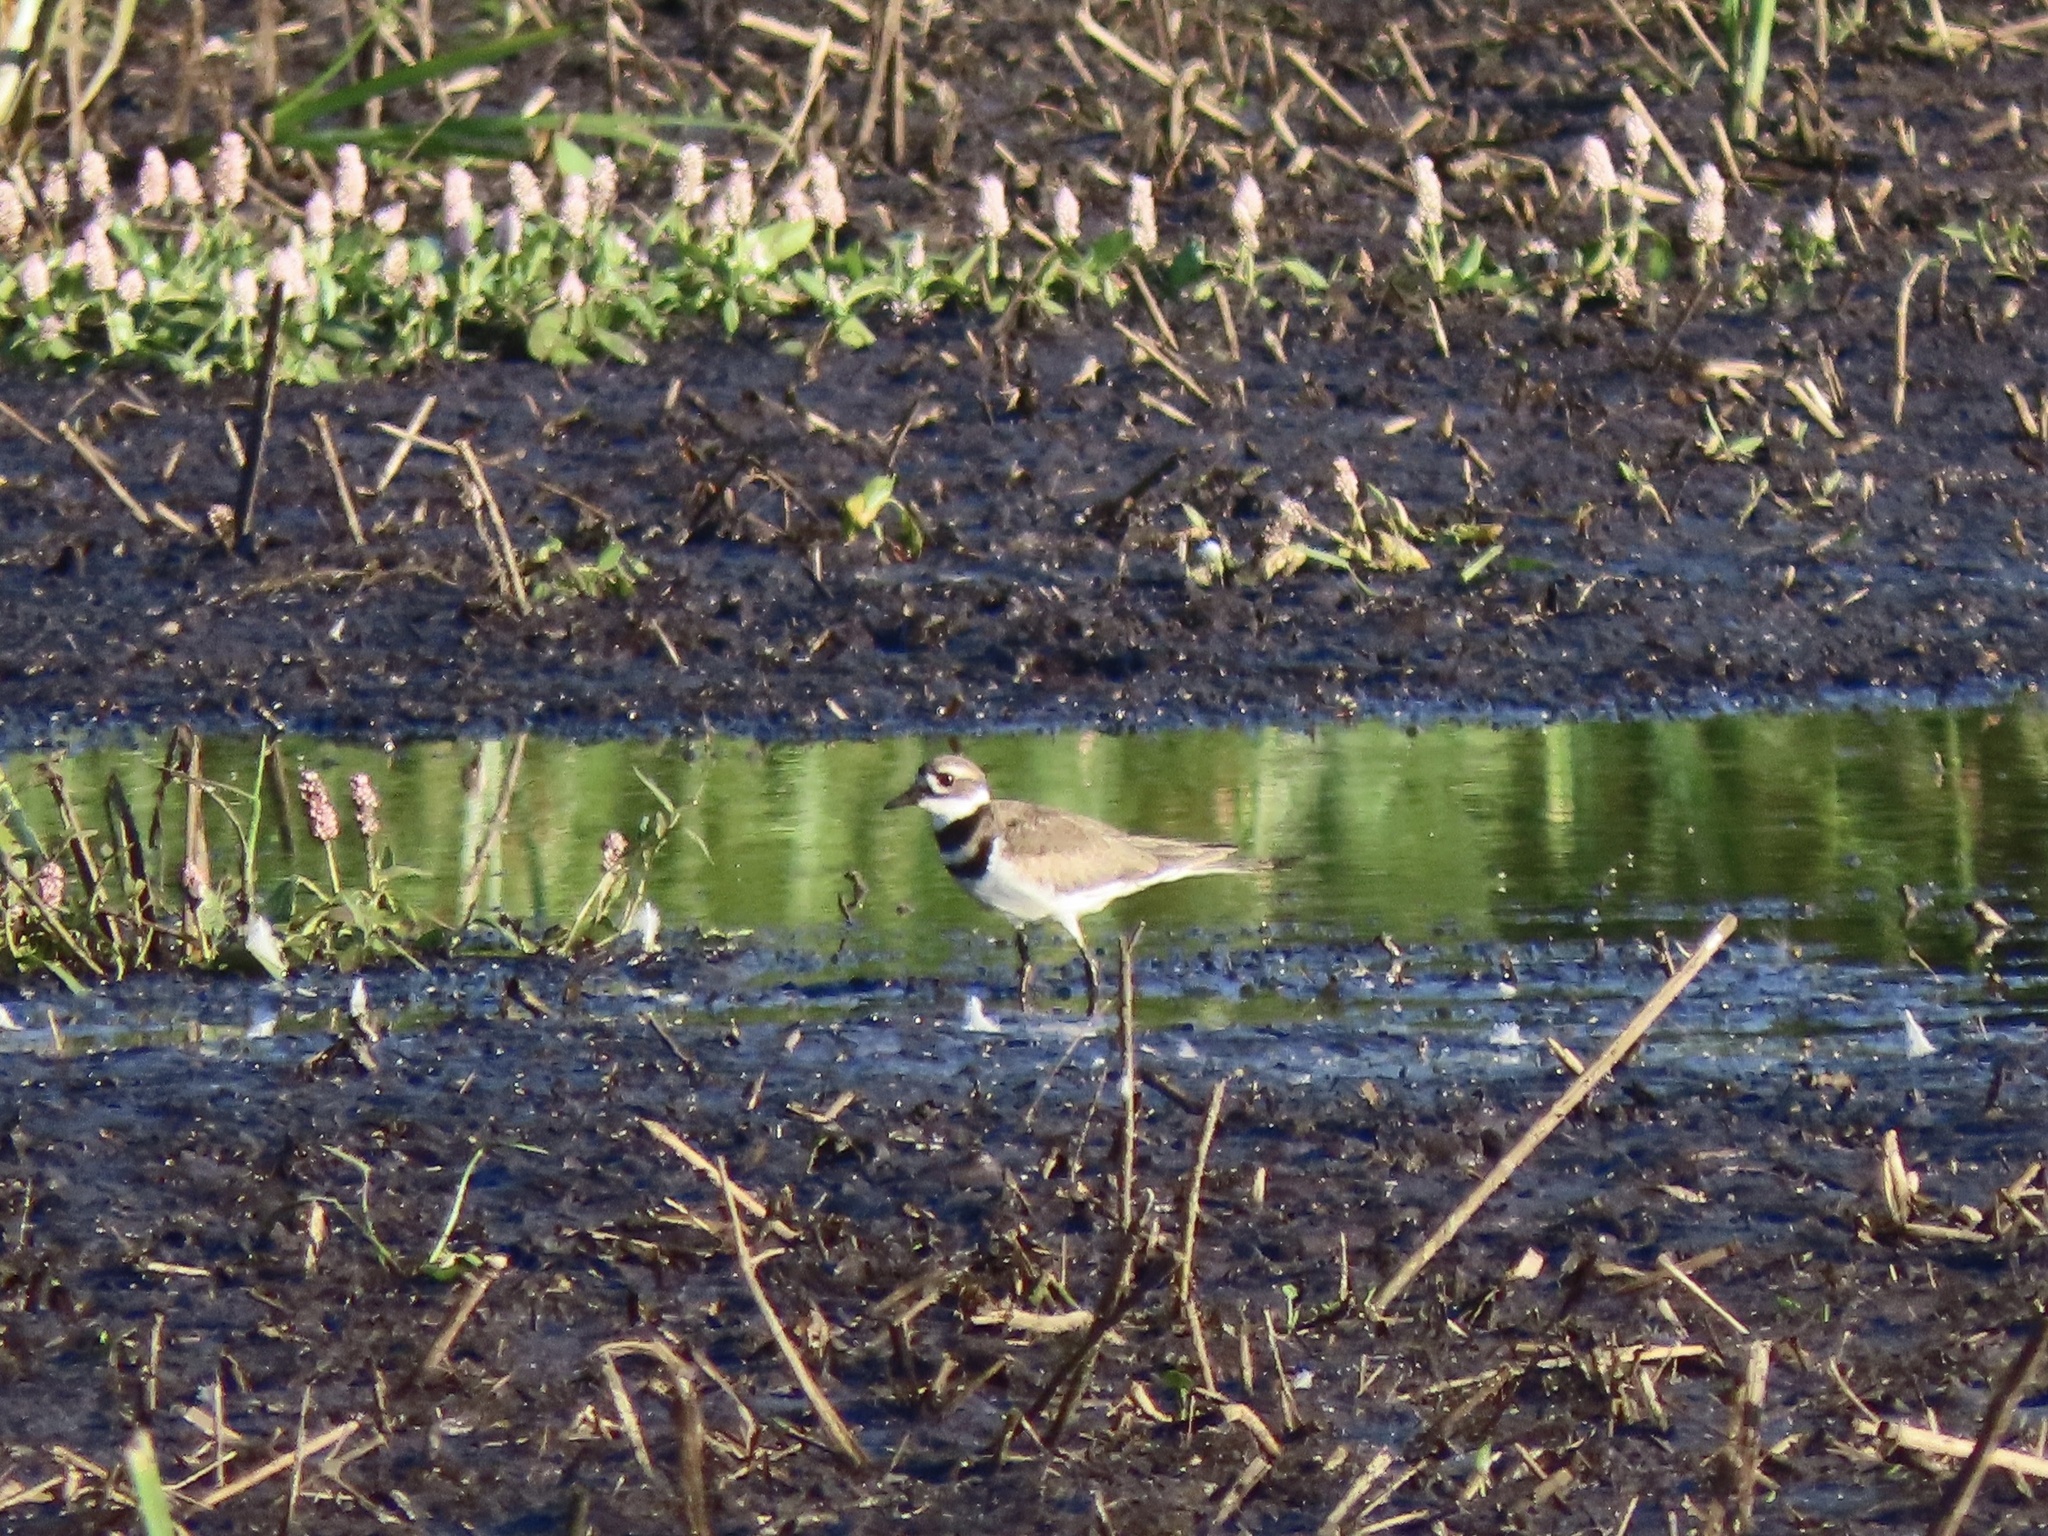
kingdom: Animalia
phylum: Chordata
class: Aves
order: Charadriiformes
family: Charadriidae
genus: Charadrius
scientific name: Charadrius vociferus
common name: Killdeer
